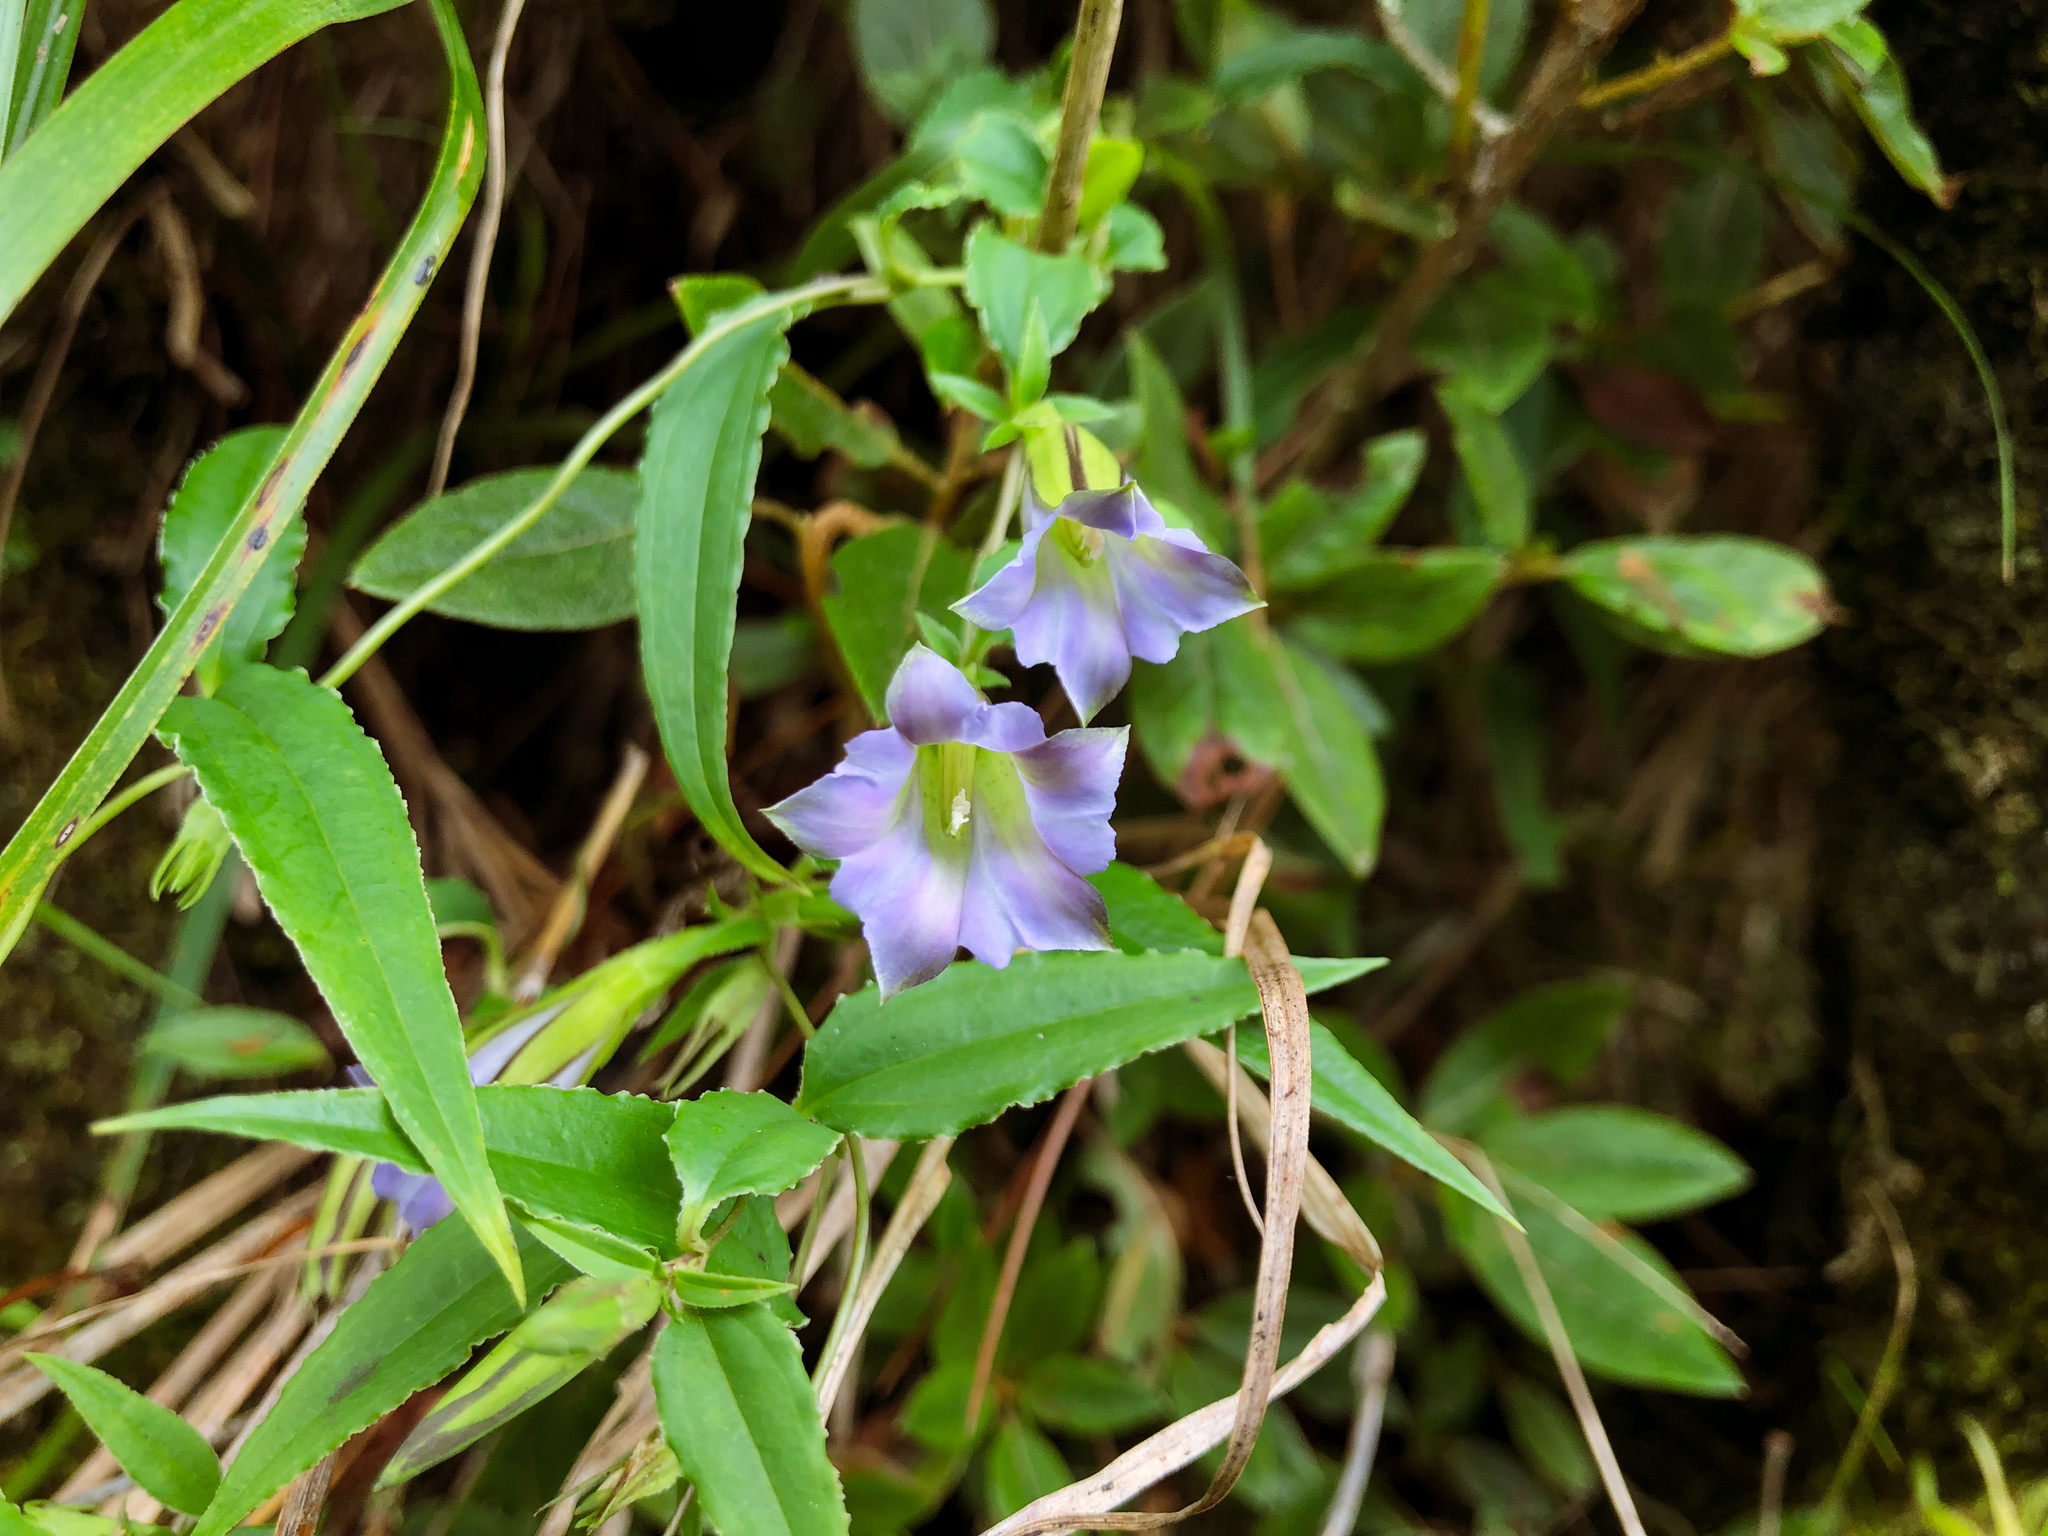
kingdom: Plantae
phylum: Tracheophyta
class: Magnoliopsida
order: Gentianales
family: Gentianaceae
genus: Tripterospermum
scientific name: Tripterospermum lanceolatum
